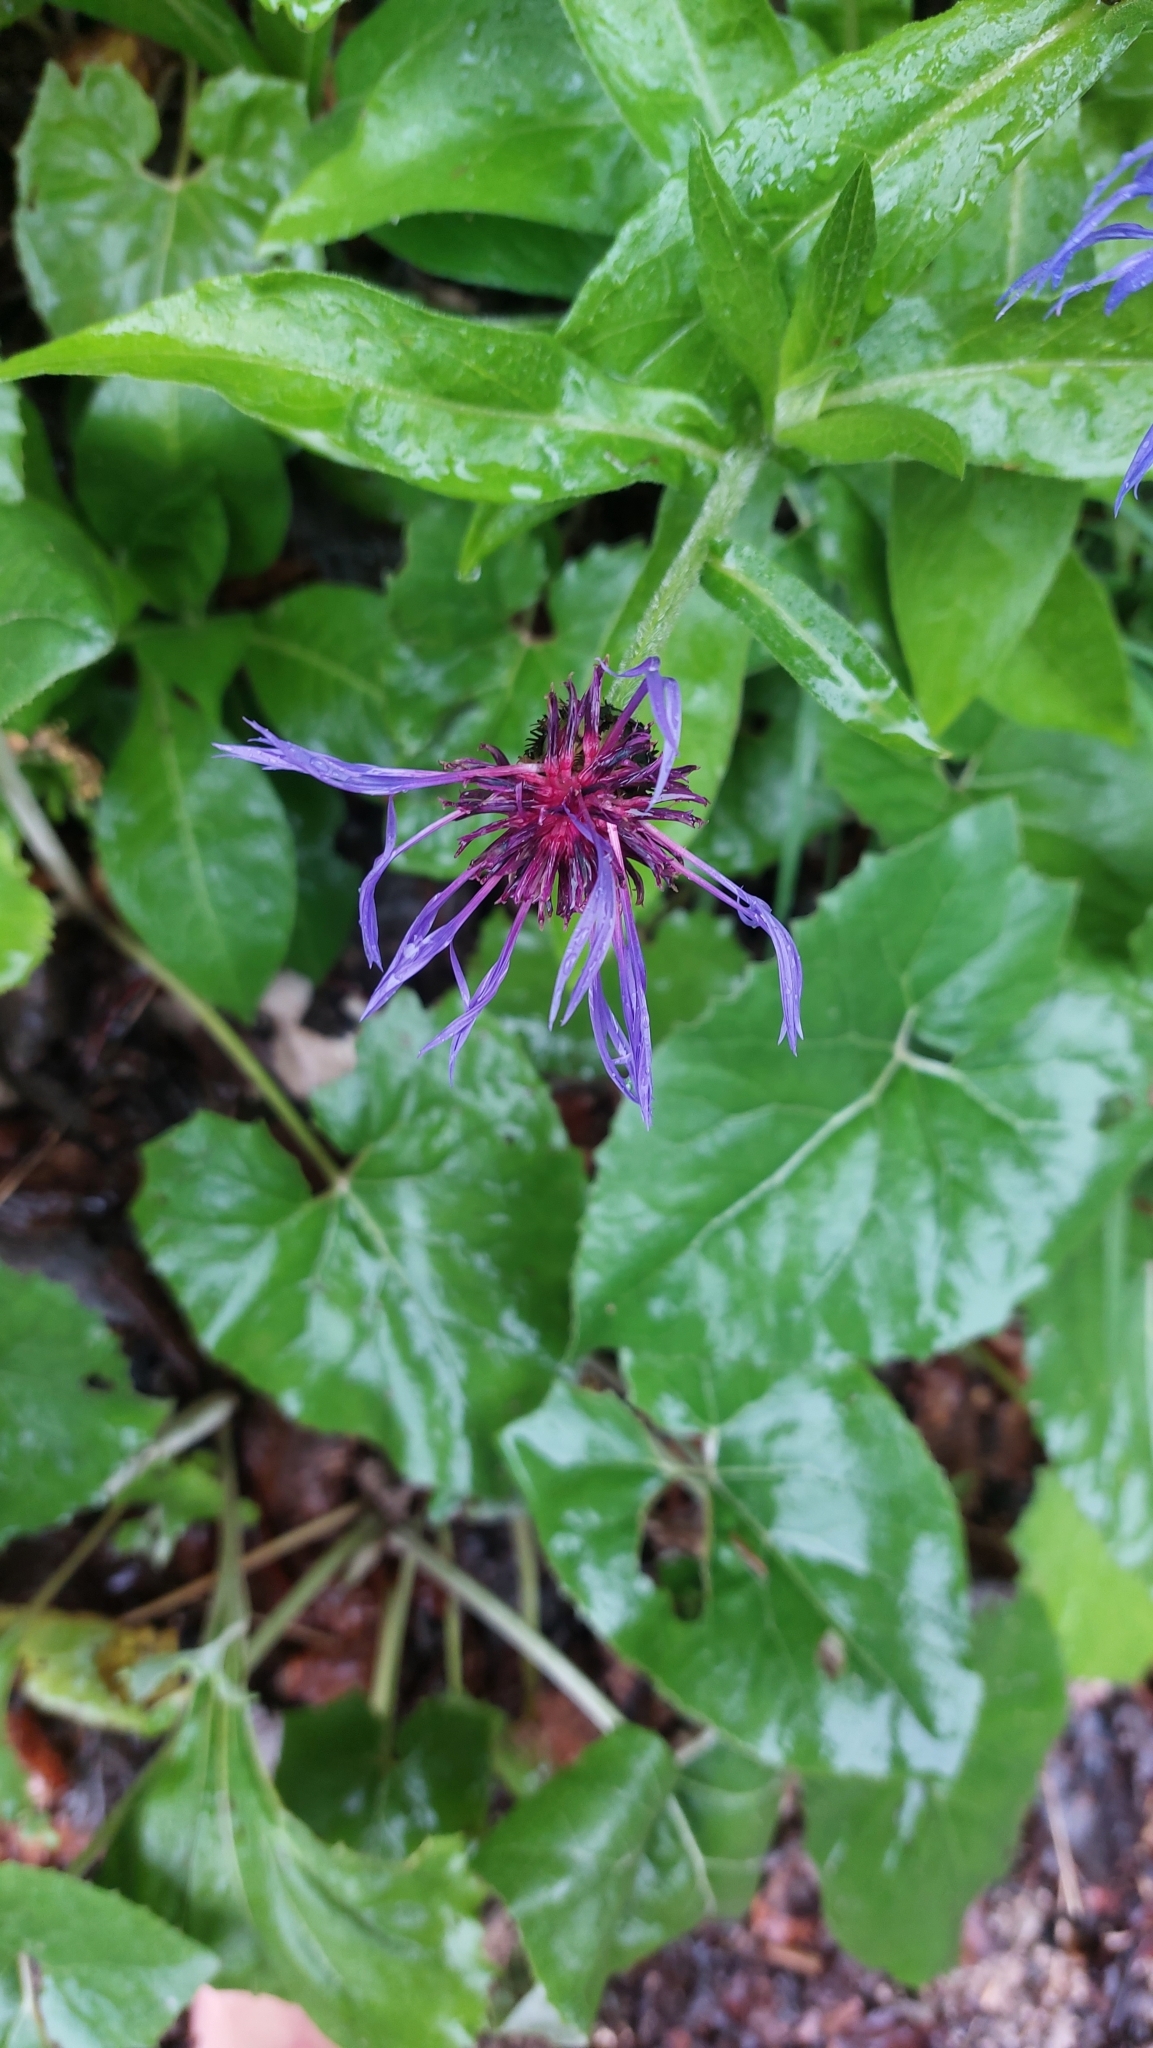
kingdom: Plantae
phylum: Tracheophyta
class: Magnoliopsida
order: Asterales
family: Asteraceae
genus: Centaurea
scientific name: Centaurea montana
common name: Perennial cornflower
